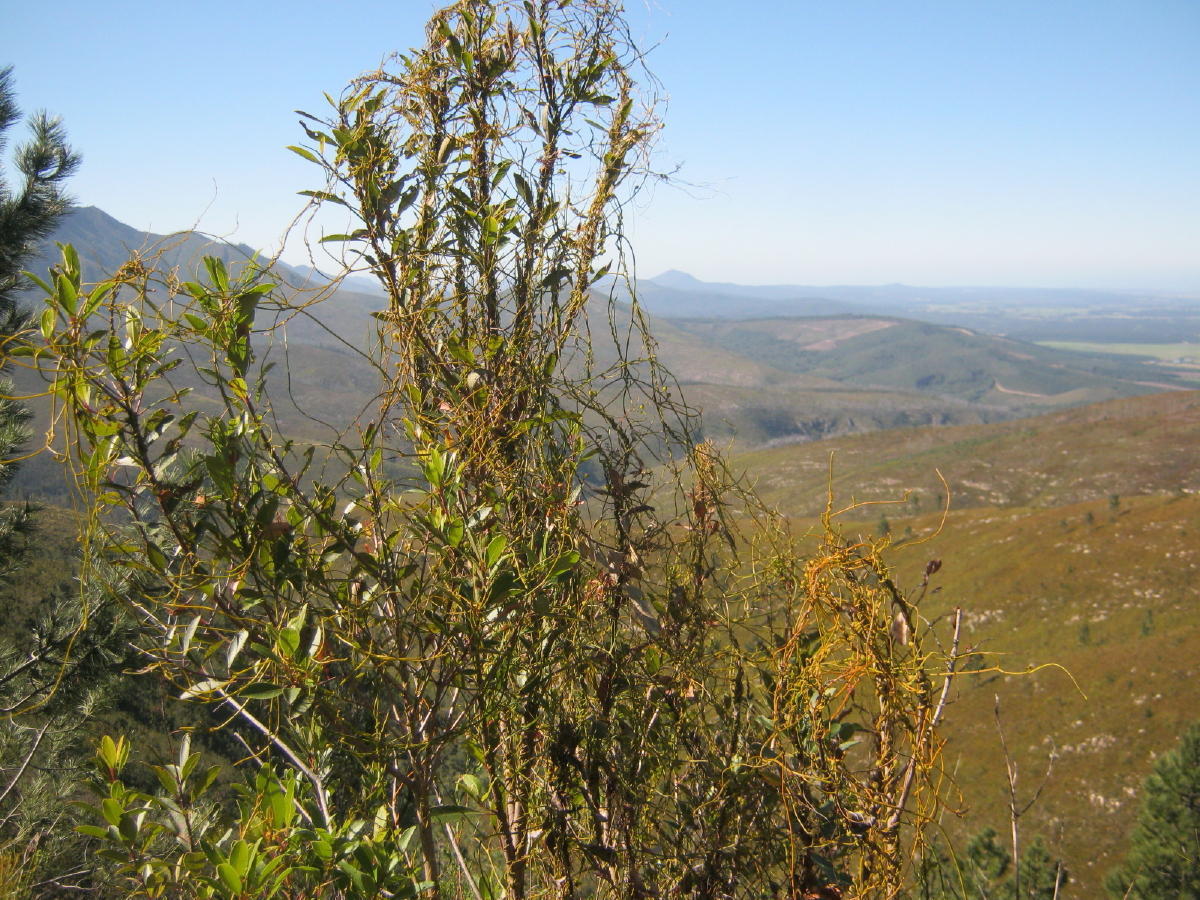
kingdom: Plantae
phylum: Tracheophyta
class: Magnoliopsida
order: Laurales
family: Lauraceae
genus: Cassytha
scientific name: Cassytha ciliolata
